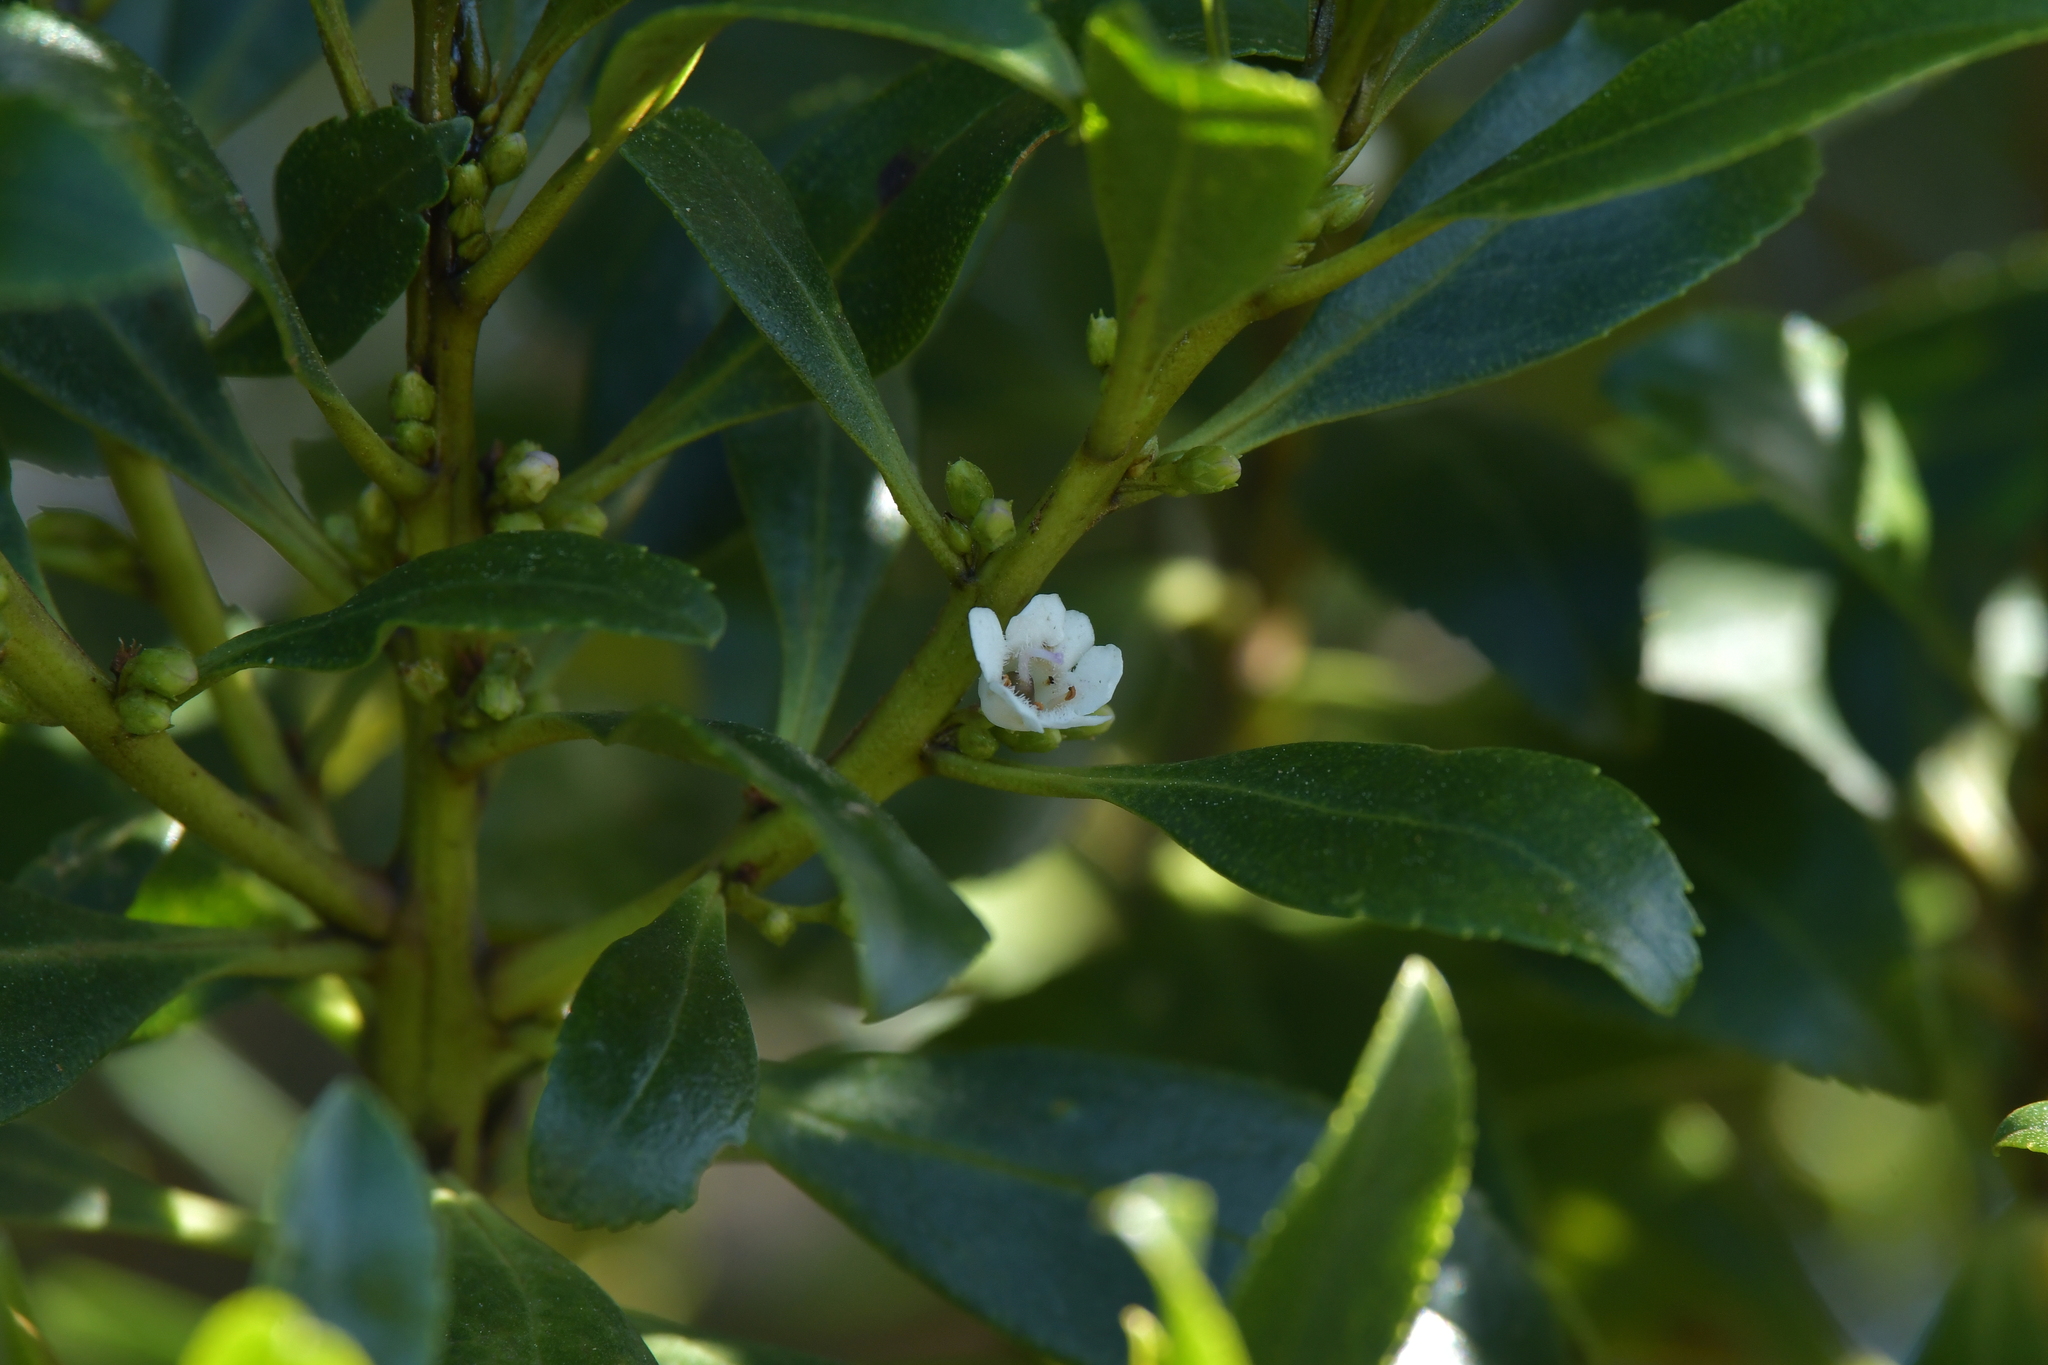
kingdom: Plantae
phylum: Tracheophyta
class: Magnoliopsida
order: Lamiales
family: Scrophulariaceae
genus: Myoporum
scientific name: Myoporum laetum
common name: Ngaio tree
